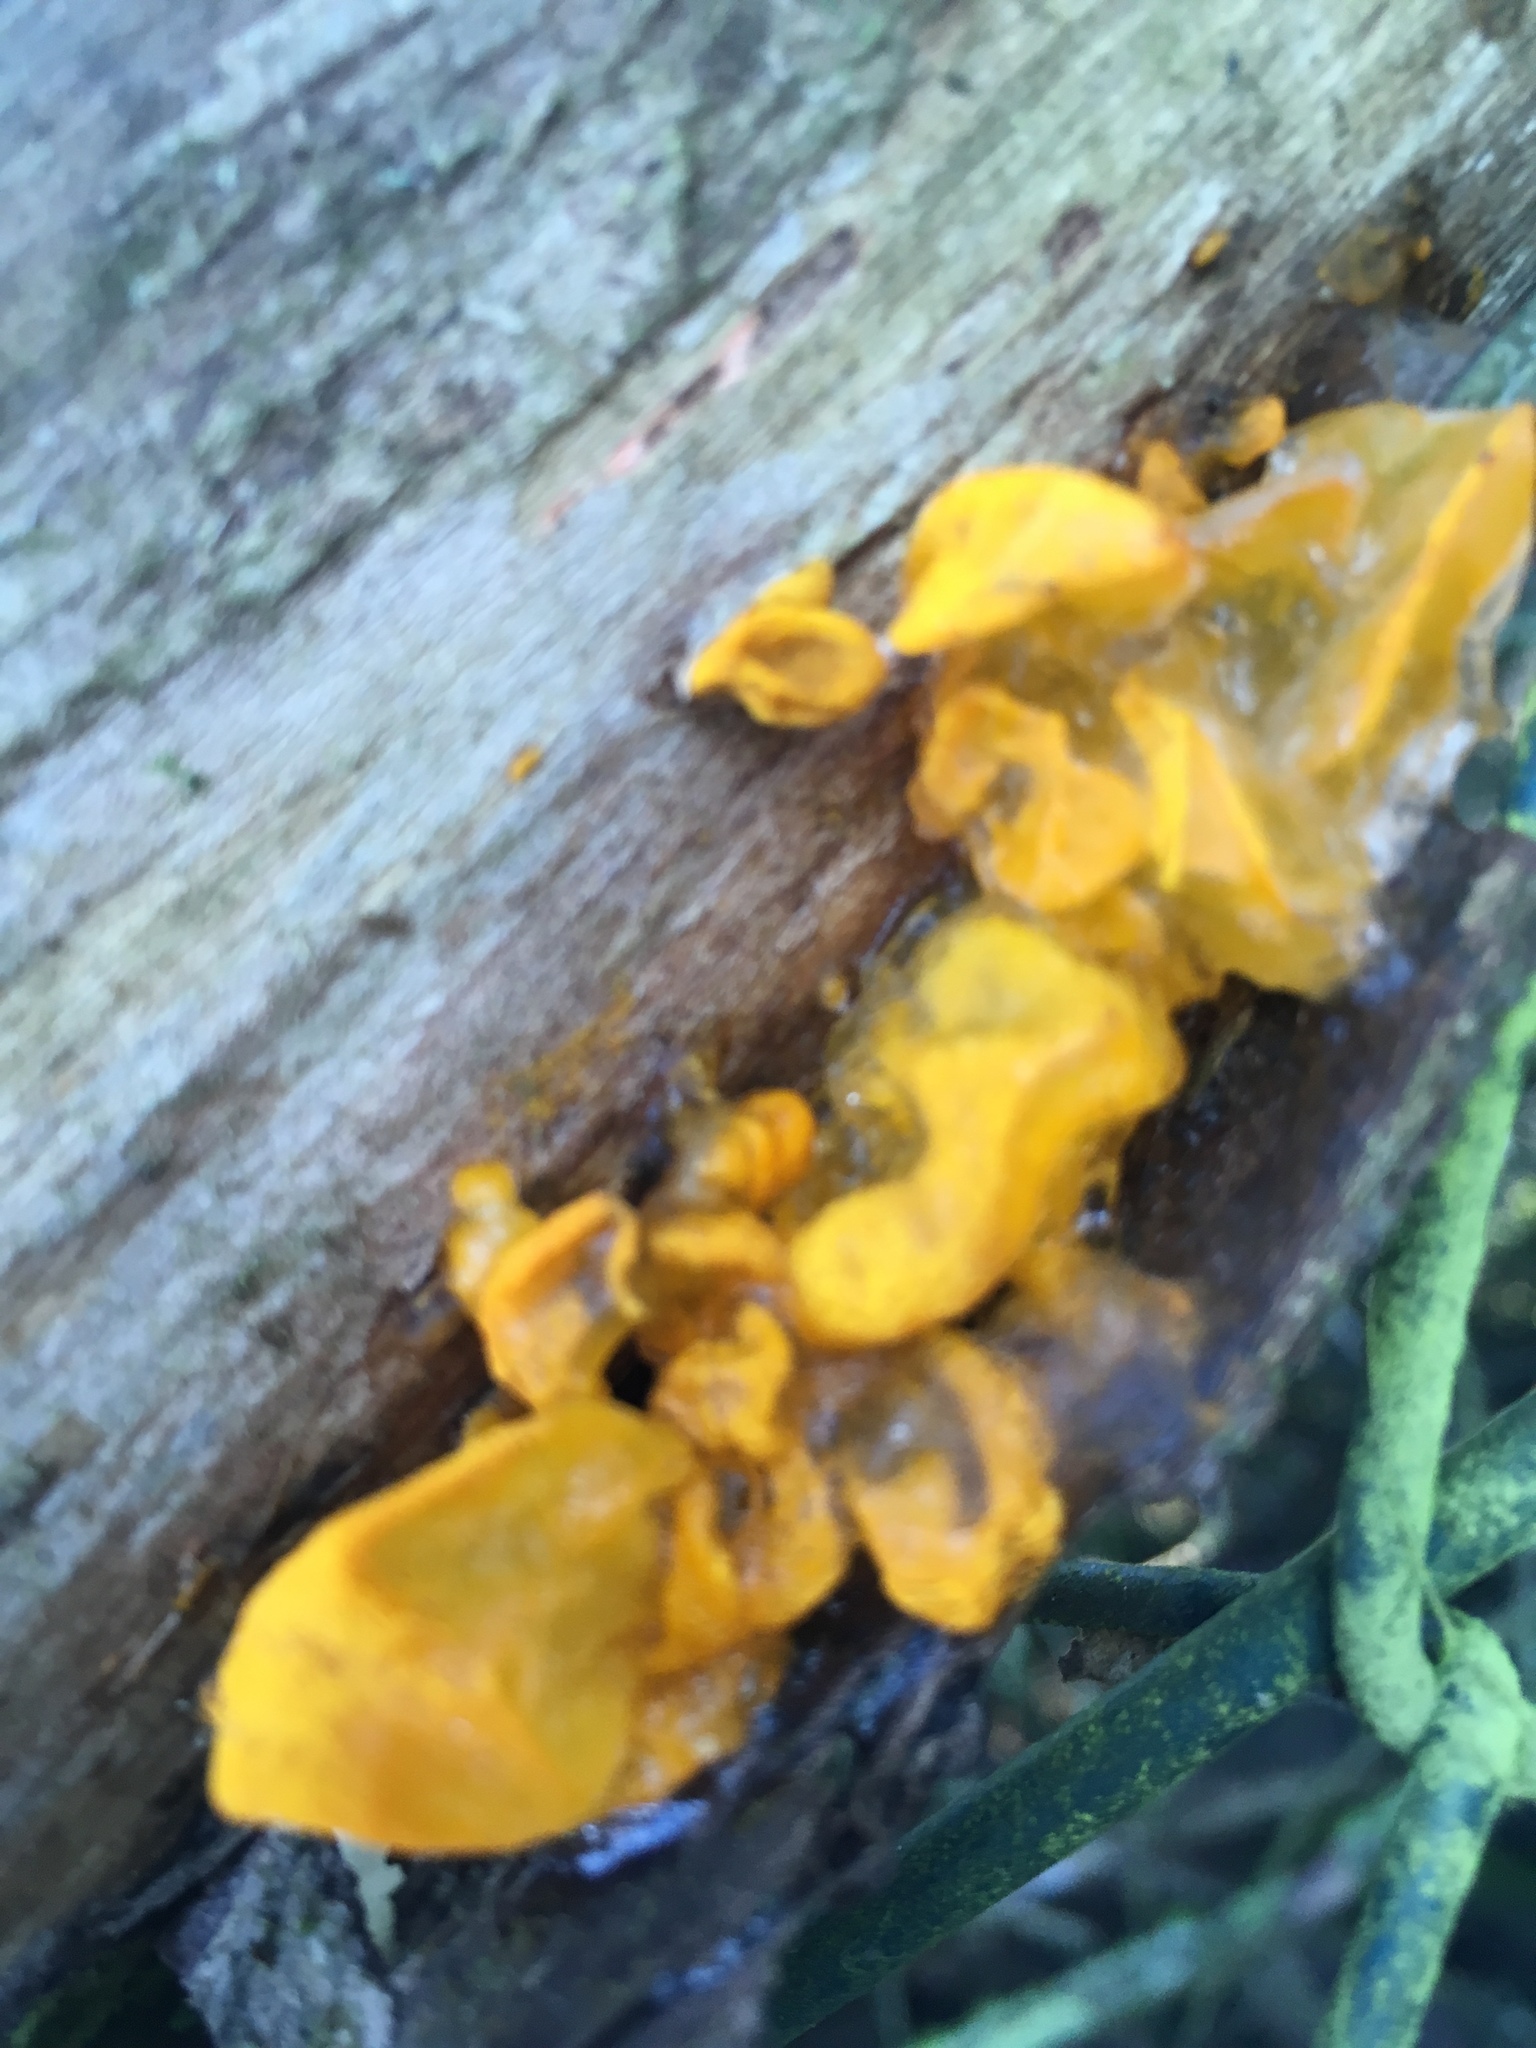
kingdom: Fungi
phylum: Basidiomycota
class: Tremellomycetes
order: Tremellales
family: Tremellaceae
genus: Tremella
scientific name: Tremella mesenterica
